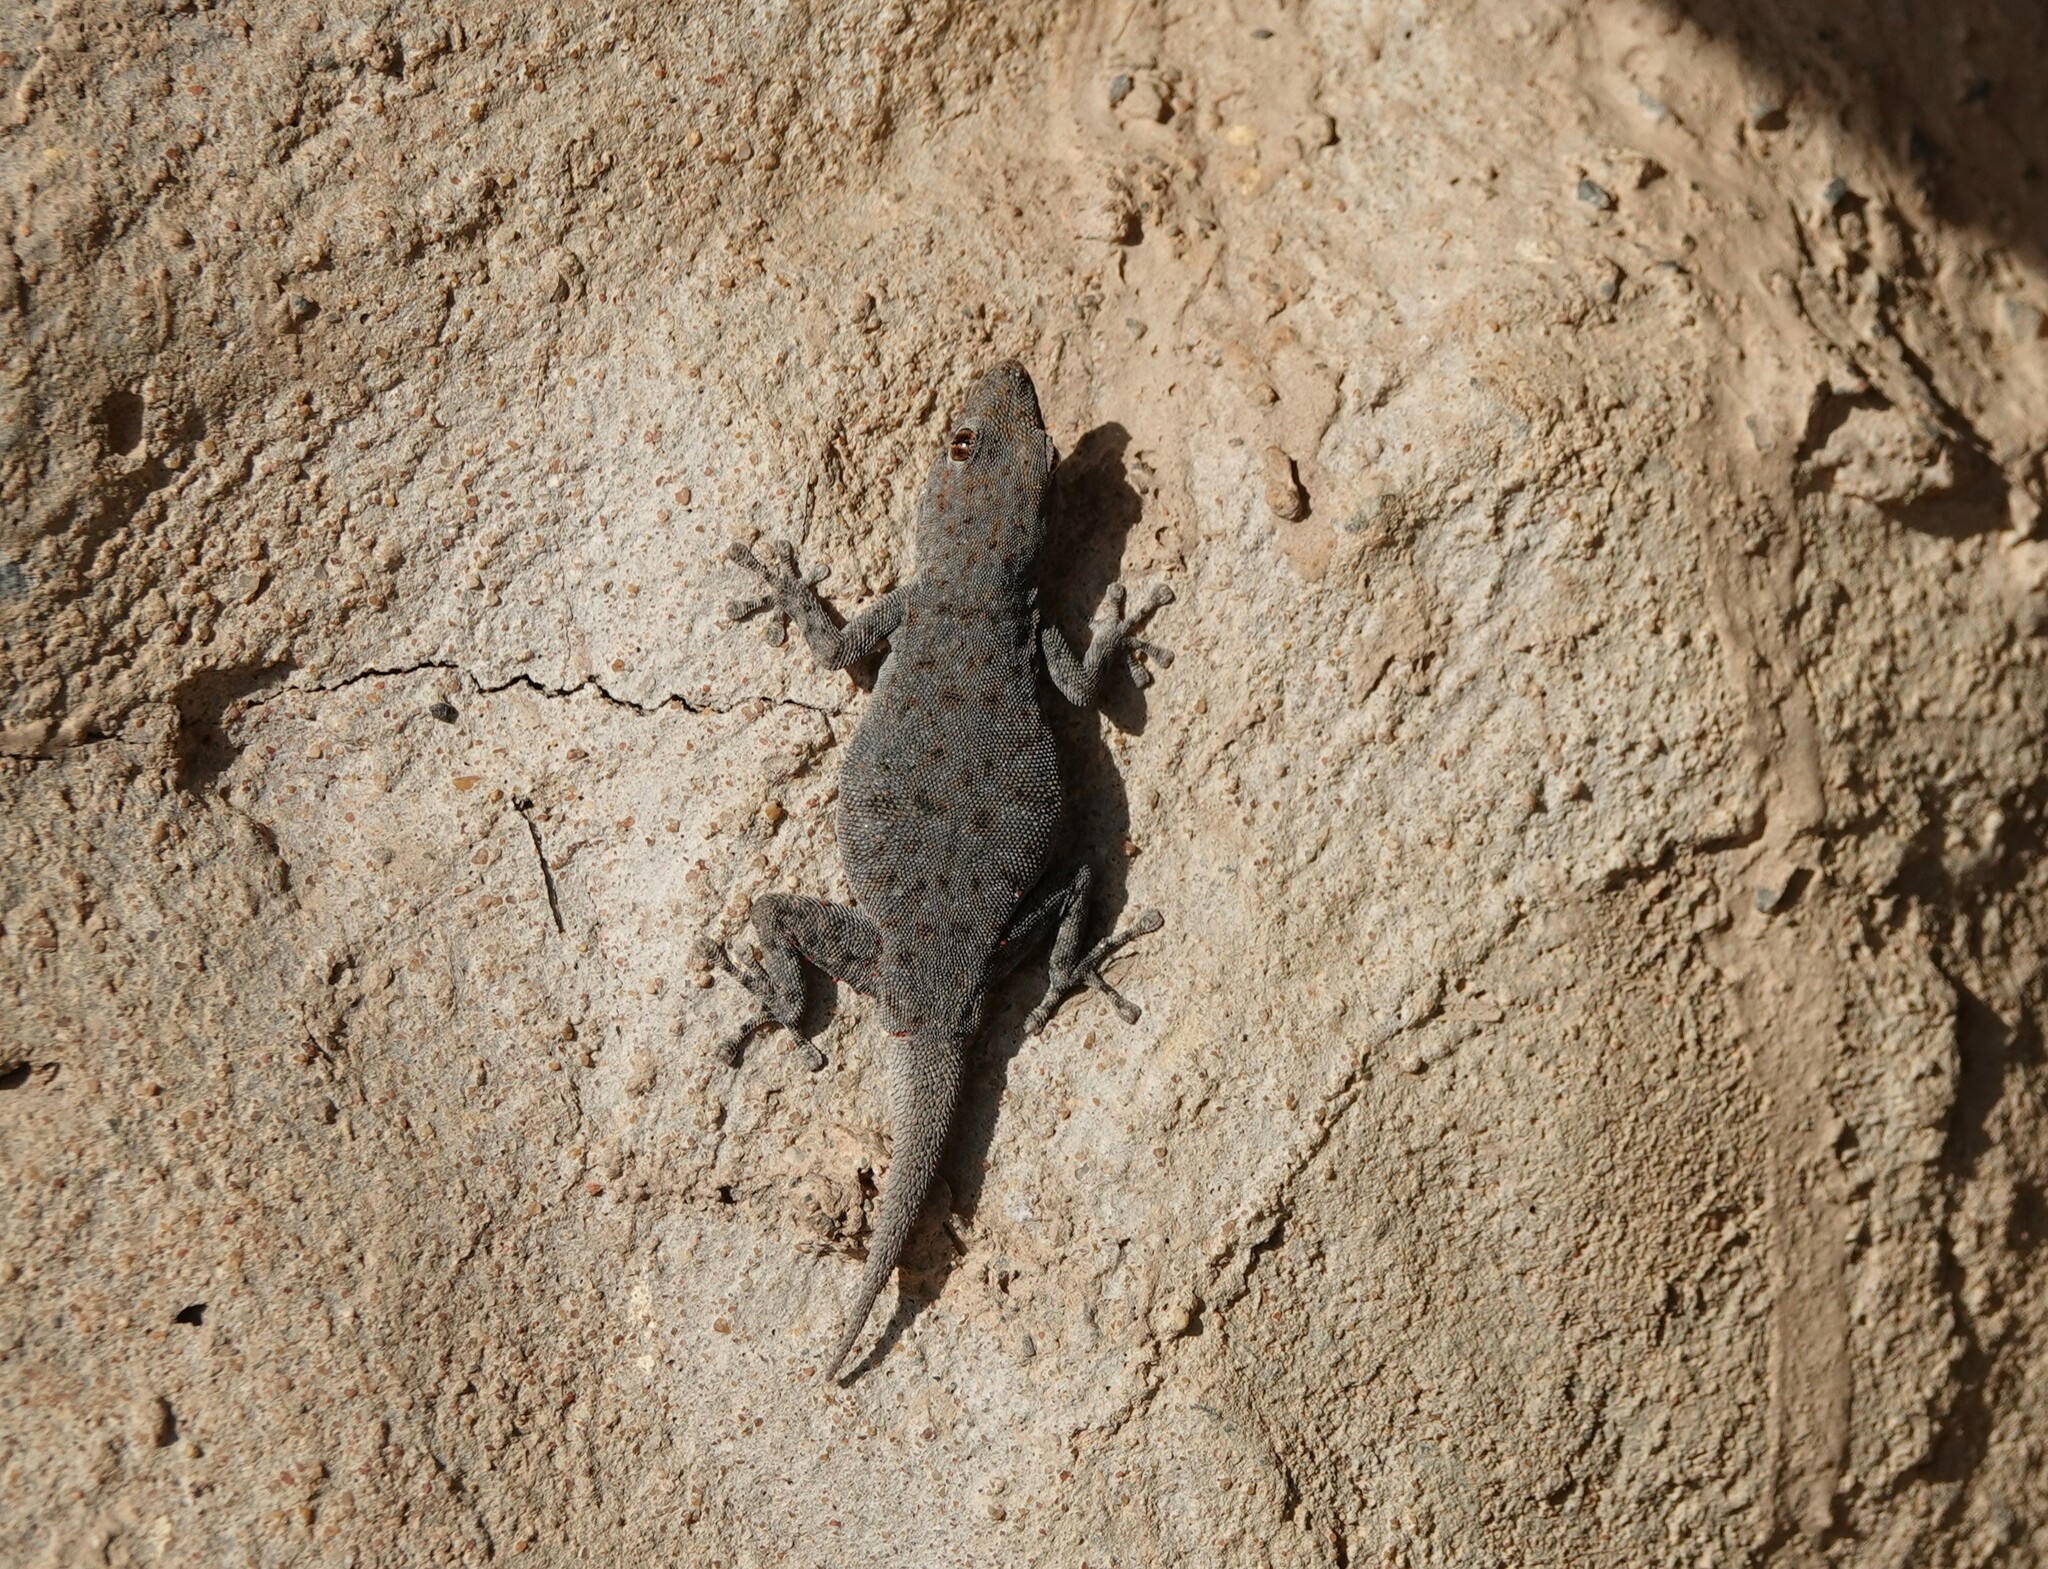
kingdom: Animalia
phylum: Chordata
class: Squamata
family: Gekkonidae
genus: Rhoptropus
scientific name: Rhoptropus barnardi
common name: Barnard’s namib day gecko
